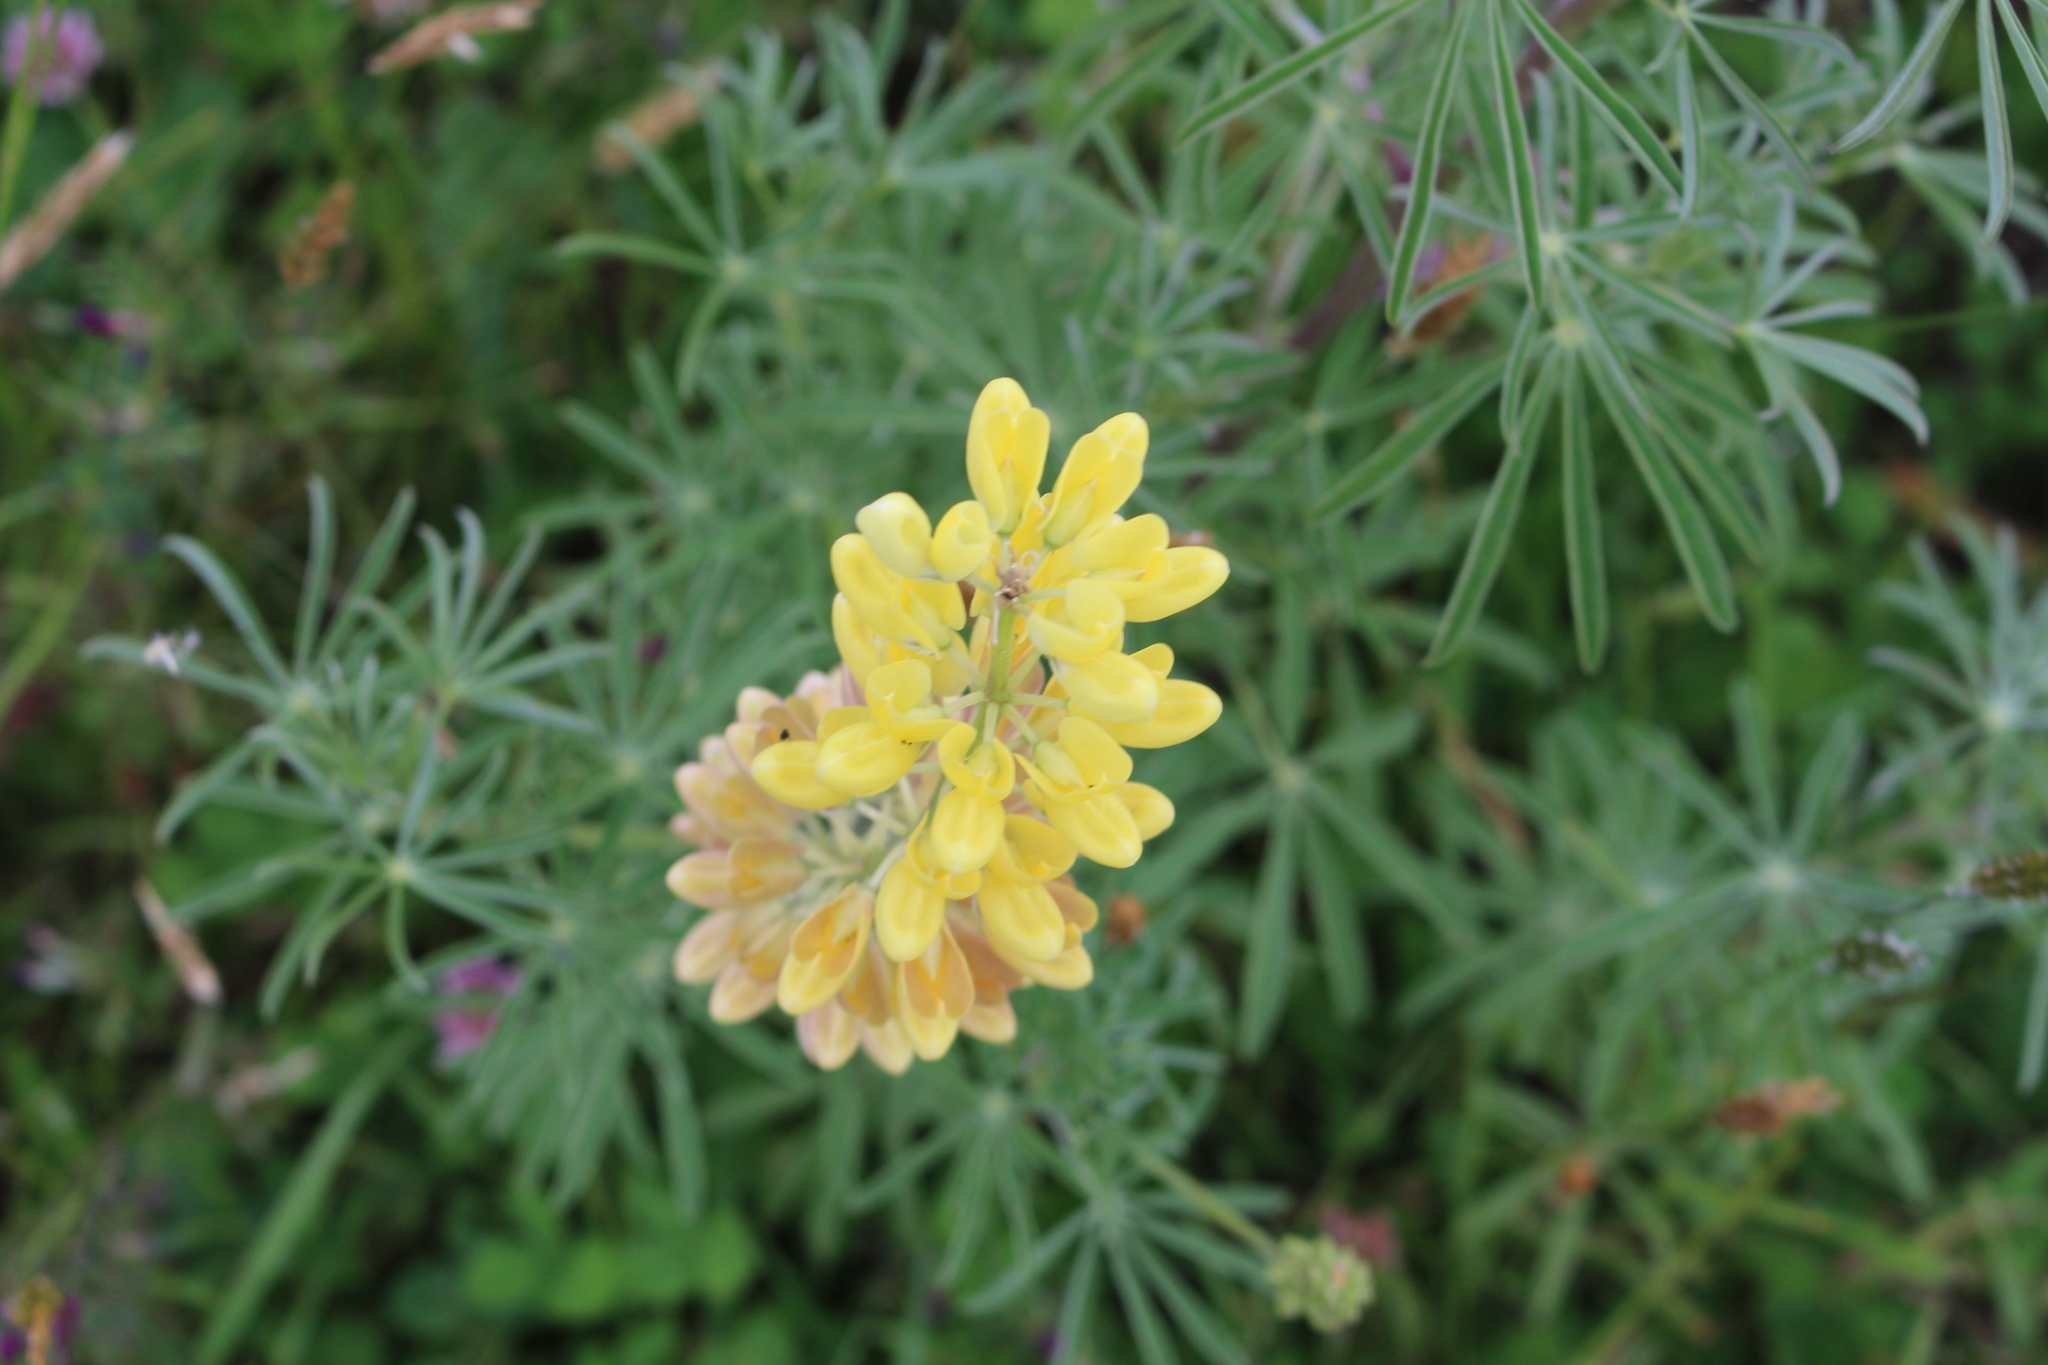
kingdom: Plantae
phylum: Tracheophyta
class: Magnoliopsida
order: Fabales
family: Fabaceae
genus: Lupinus
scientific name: Lupinus arboreus
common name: Yellow bush lupine
